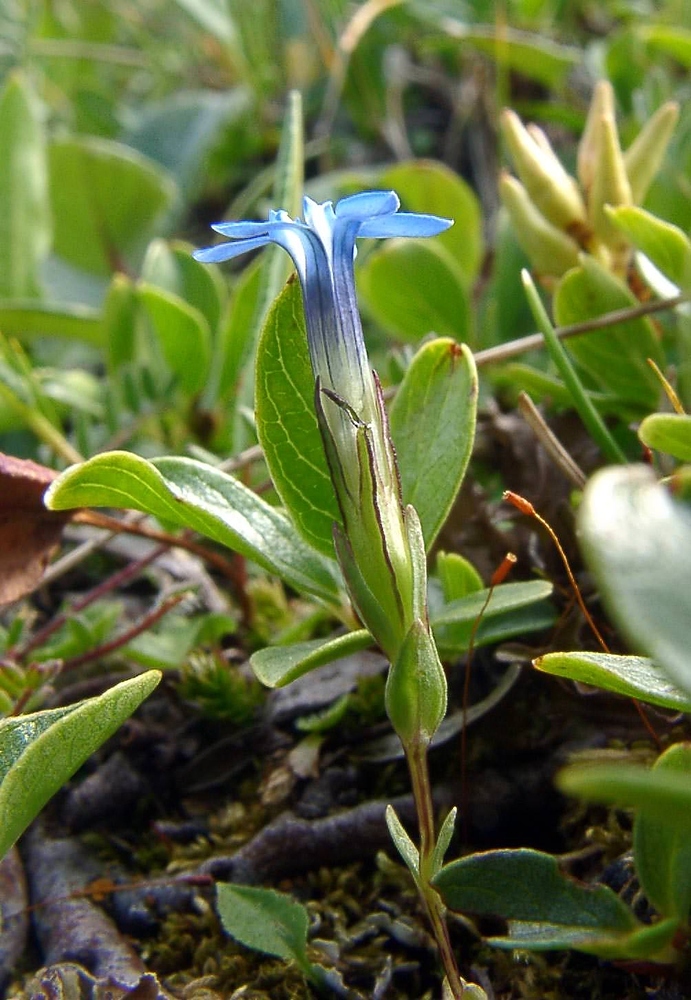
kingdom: Plantae
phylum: Tracheophyta
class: Magnoliopsida
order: Gentianales
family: Gentianaceae
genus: Gentiana
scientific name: Gentiana nivalis
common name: Alpine gentian
